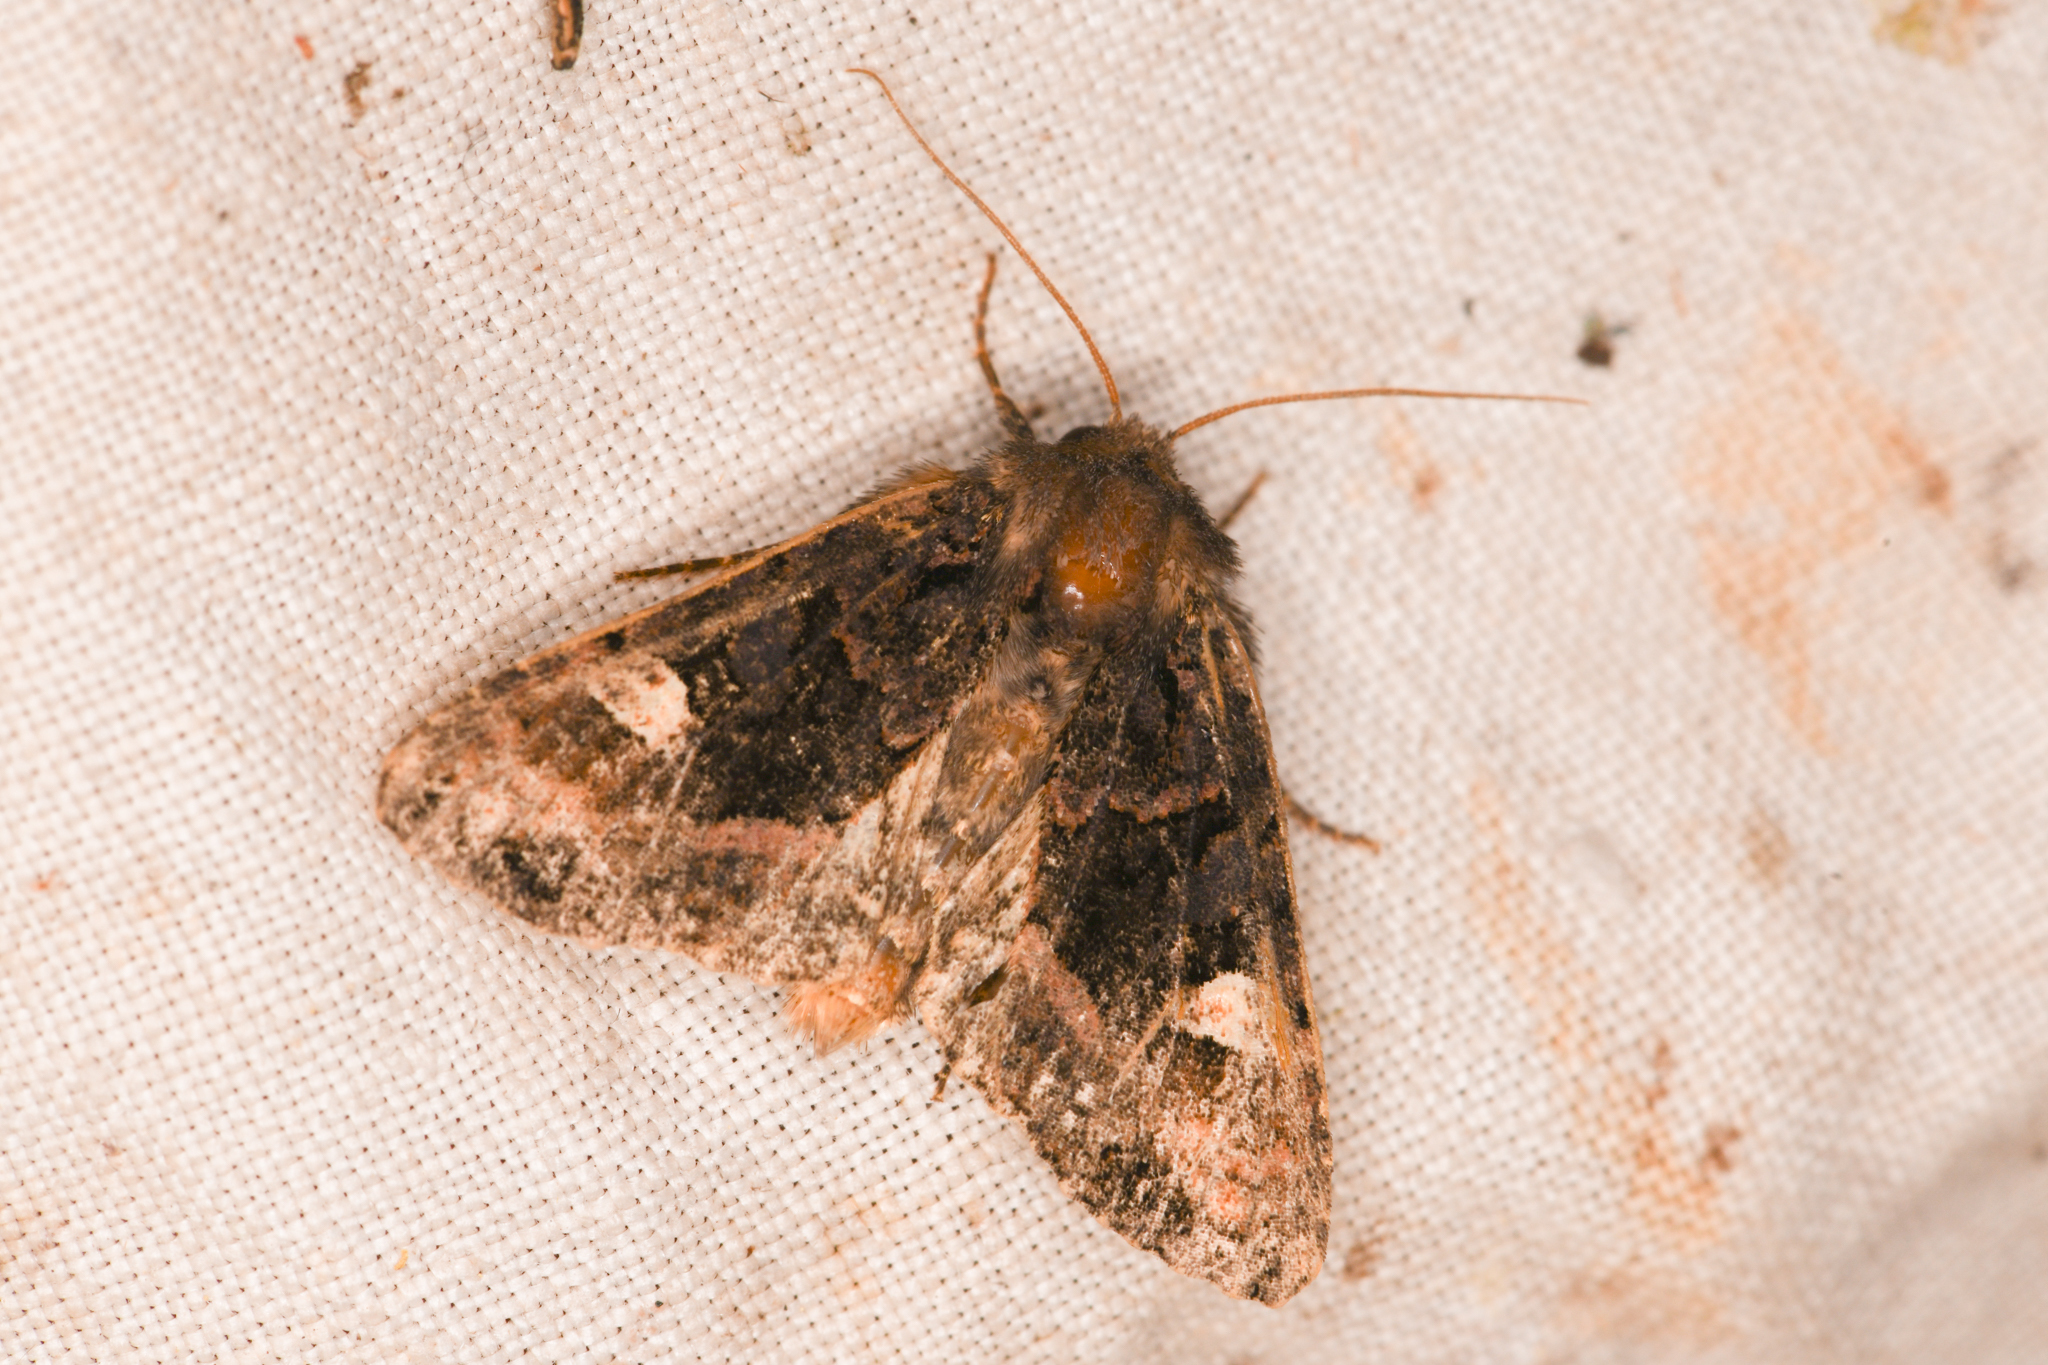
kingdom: Animalia
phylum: Arthropoda
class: Insecta
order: Lepidoptera
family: Noctuidae
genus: Euplexia
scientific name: Euplexia benesimilis
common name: American angle shades
